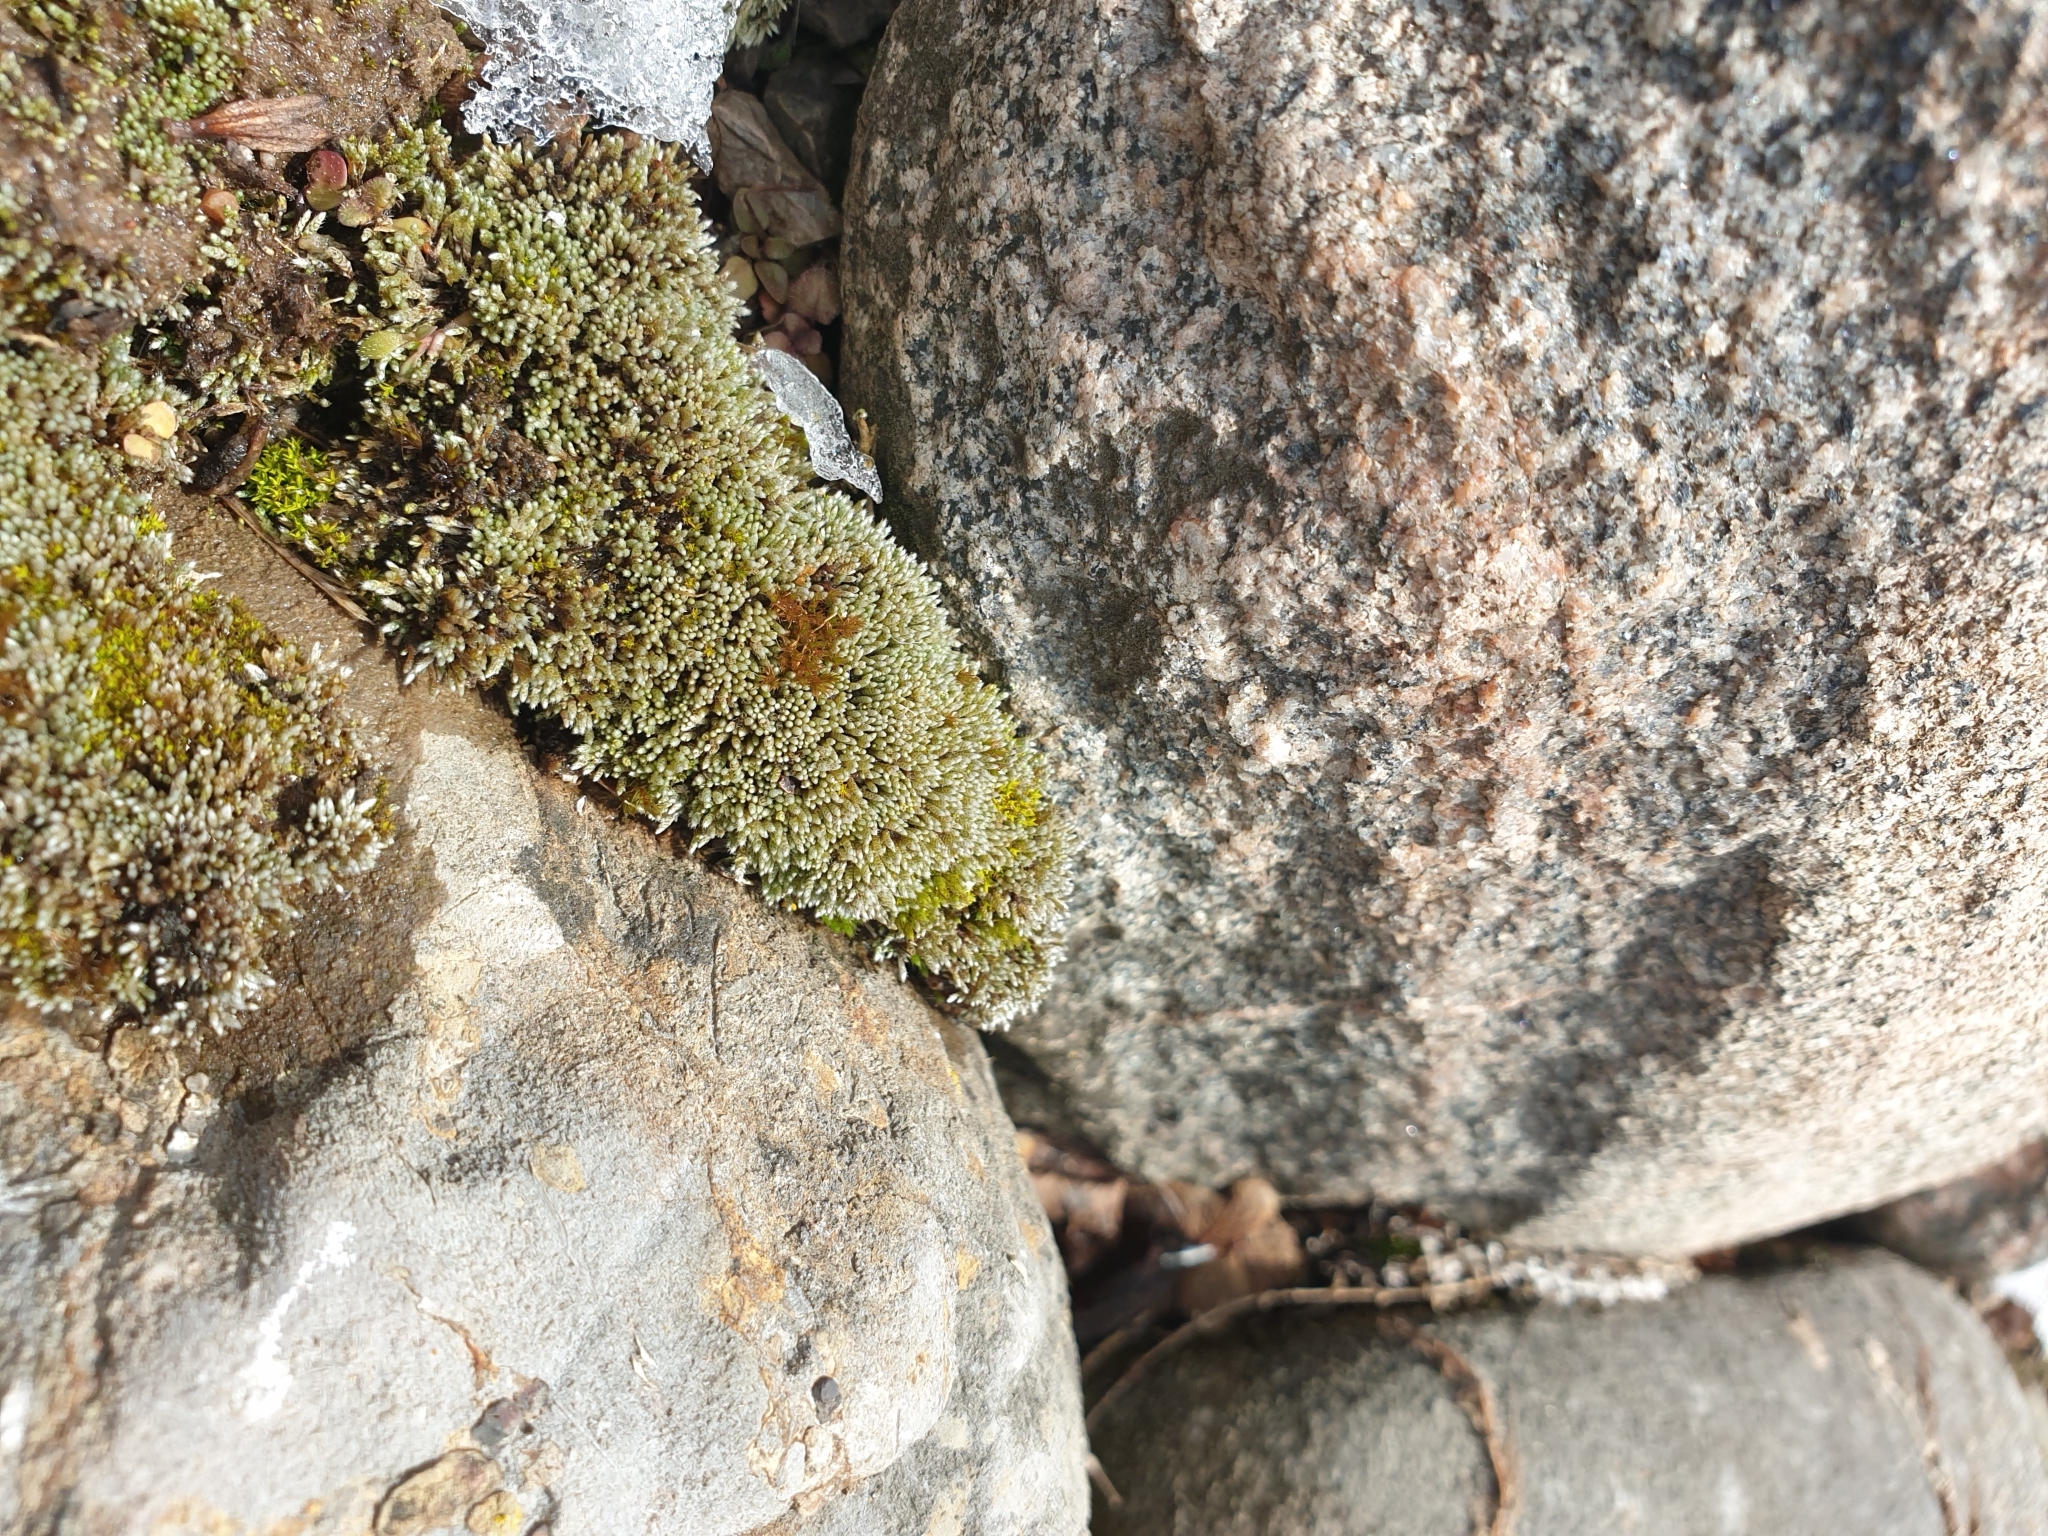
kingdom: Plantae
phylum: Bryophyta
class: Bryopsida
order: Bryales
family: Bryaceae
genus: Bryum
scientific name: Bryum argenteum
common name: Silver-moss
